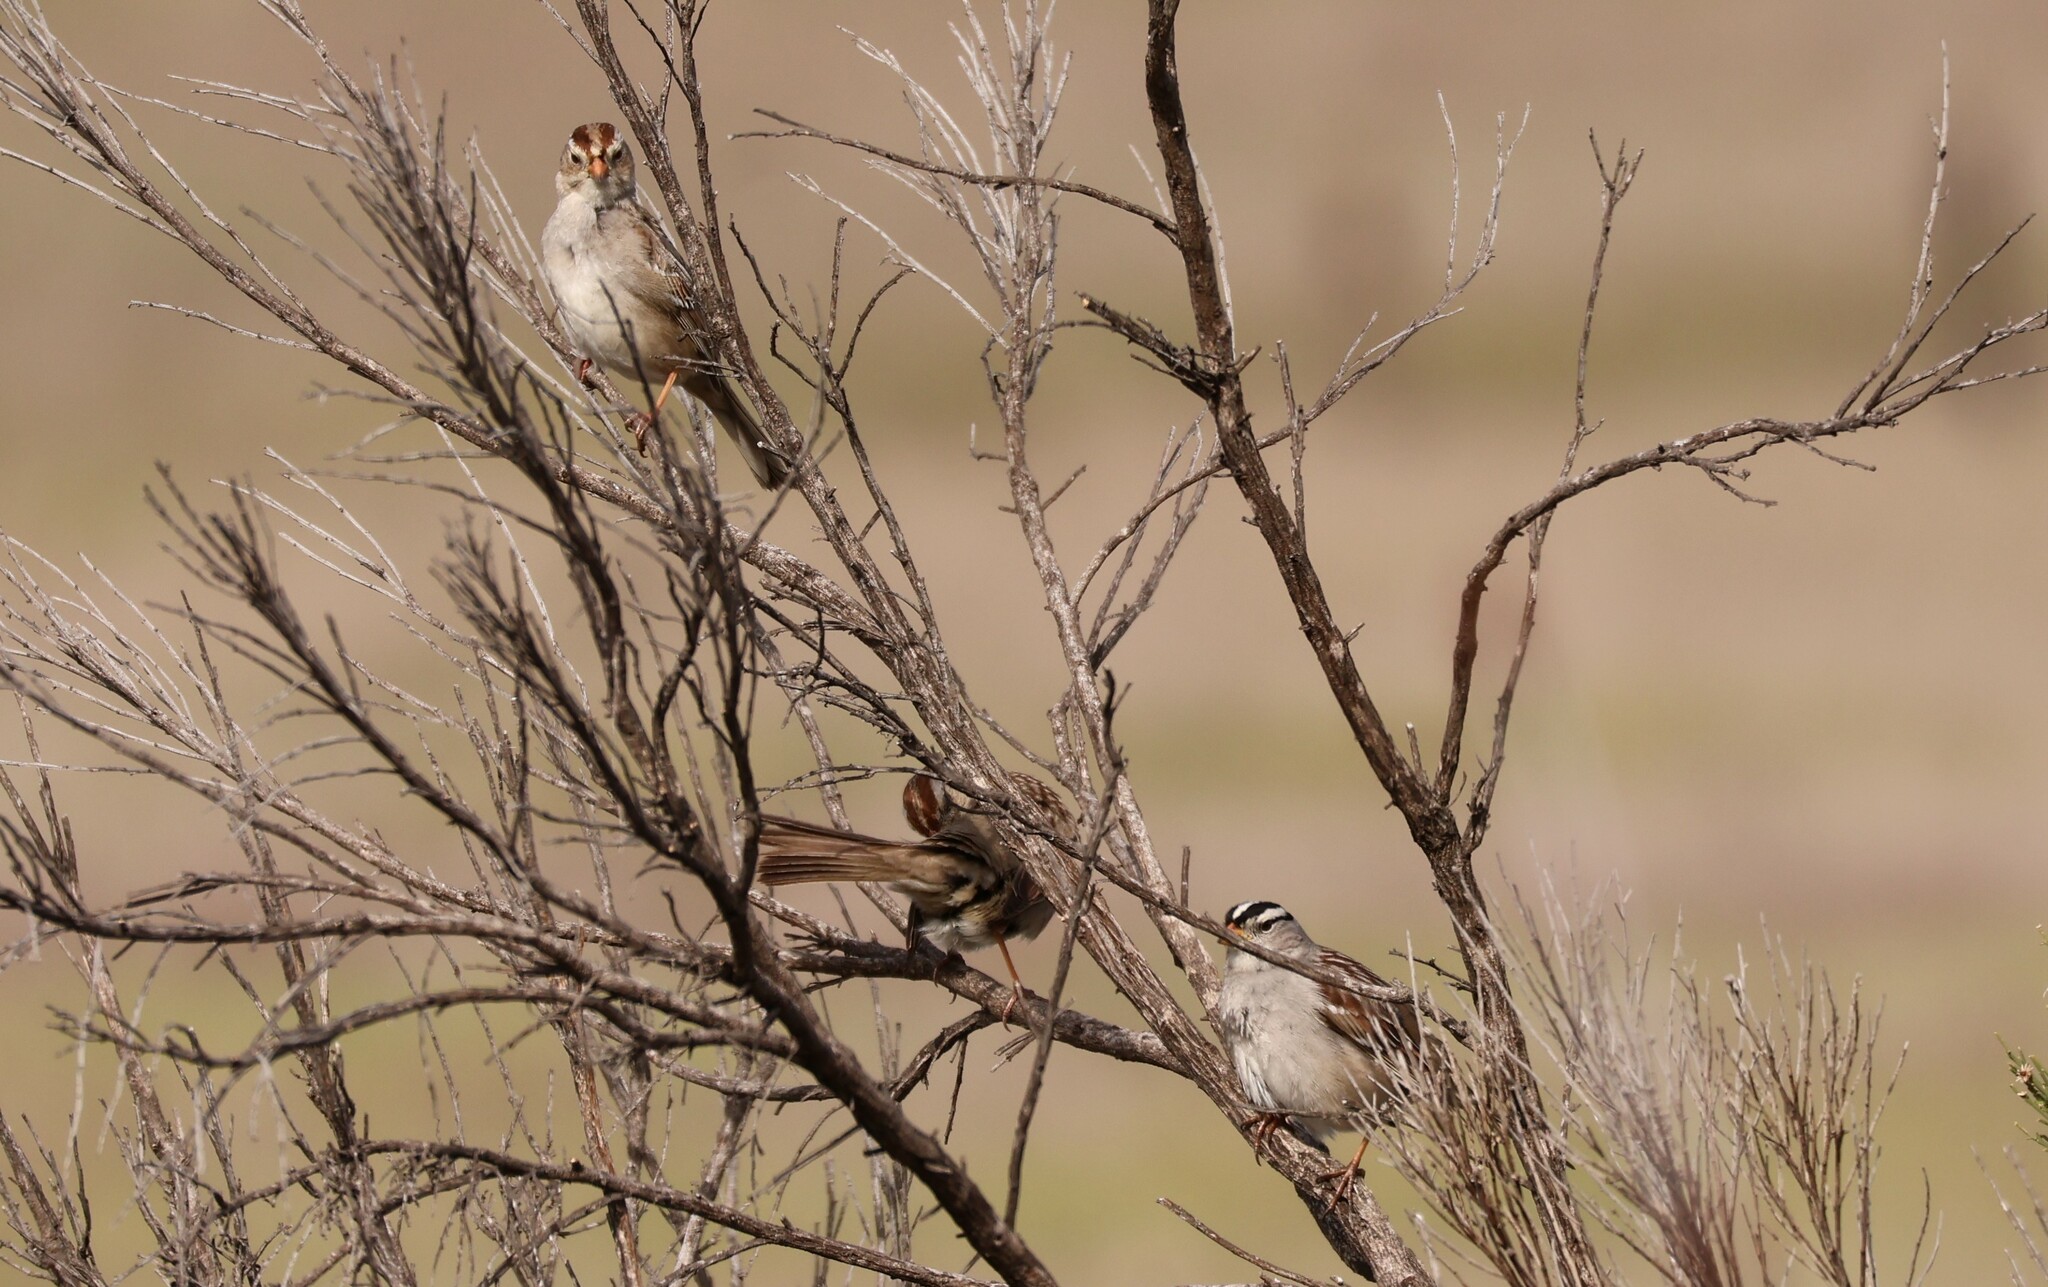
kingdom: Animalia
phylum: Chordata
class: Aves
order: Passeriformes
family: Passerellidae
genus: Zonotrichia
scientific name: Zonotrichia leucophrys
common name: White-crowned sparrow
